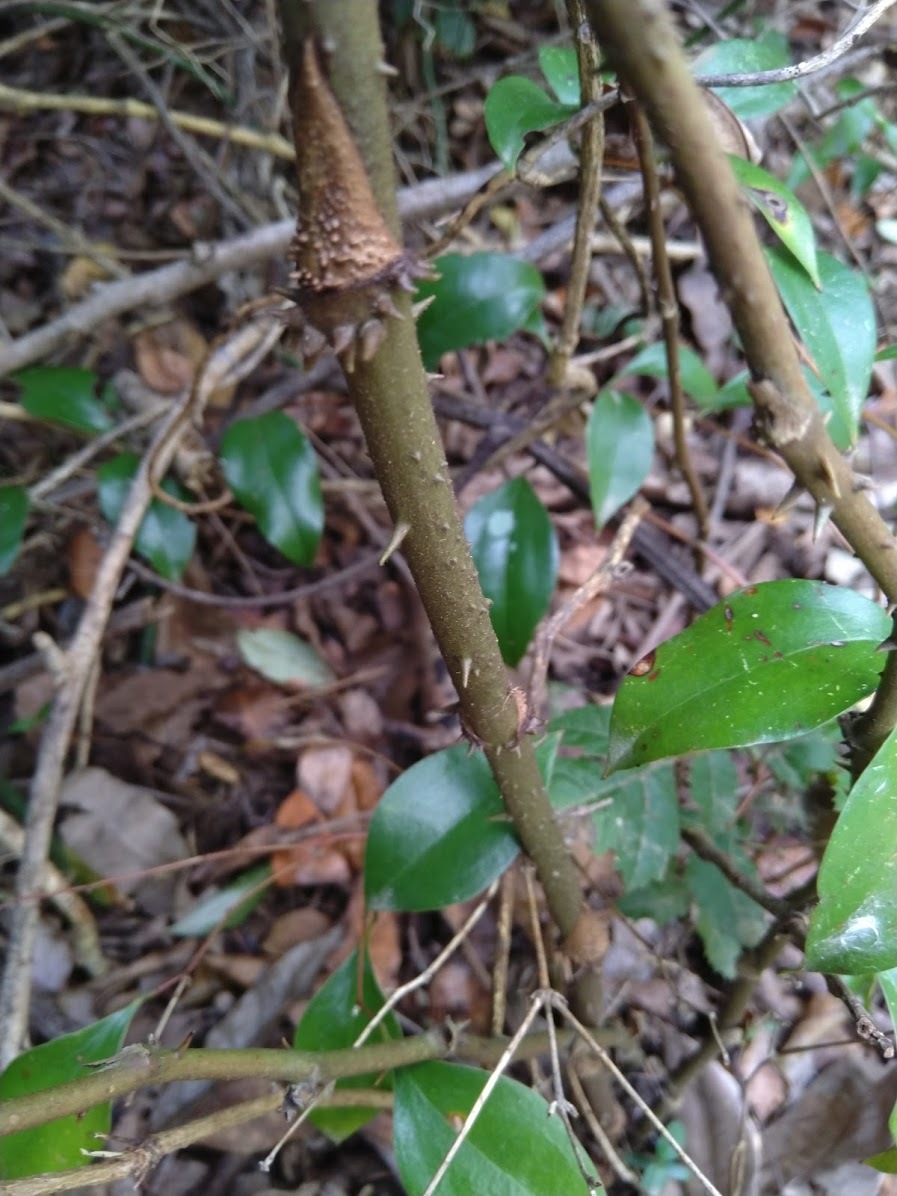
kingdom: Plantae
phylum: Tracheophyta
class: Liliopsida
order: Liliales
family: Ripogonaceae
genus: Ripogonum
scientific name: Ripogonum brevifolium
